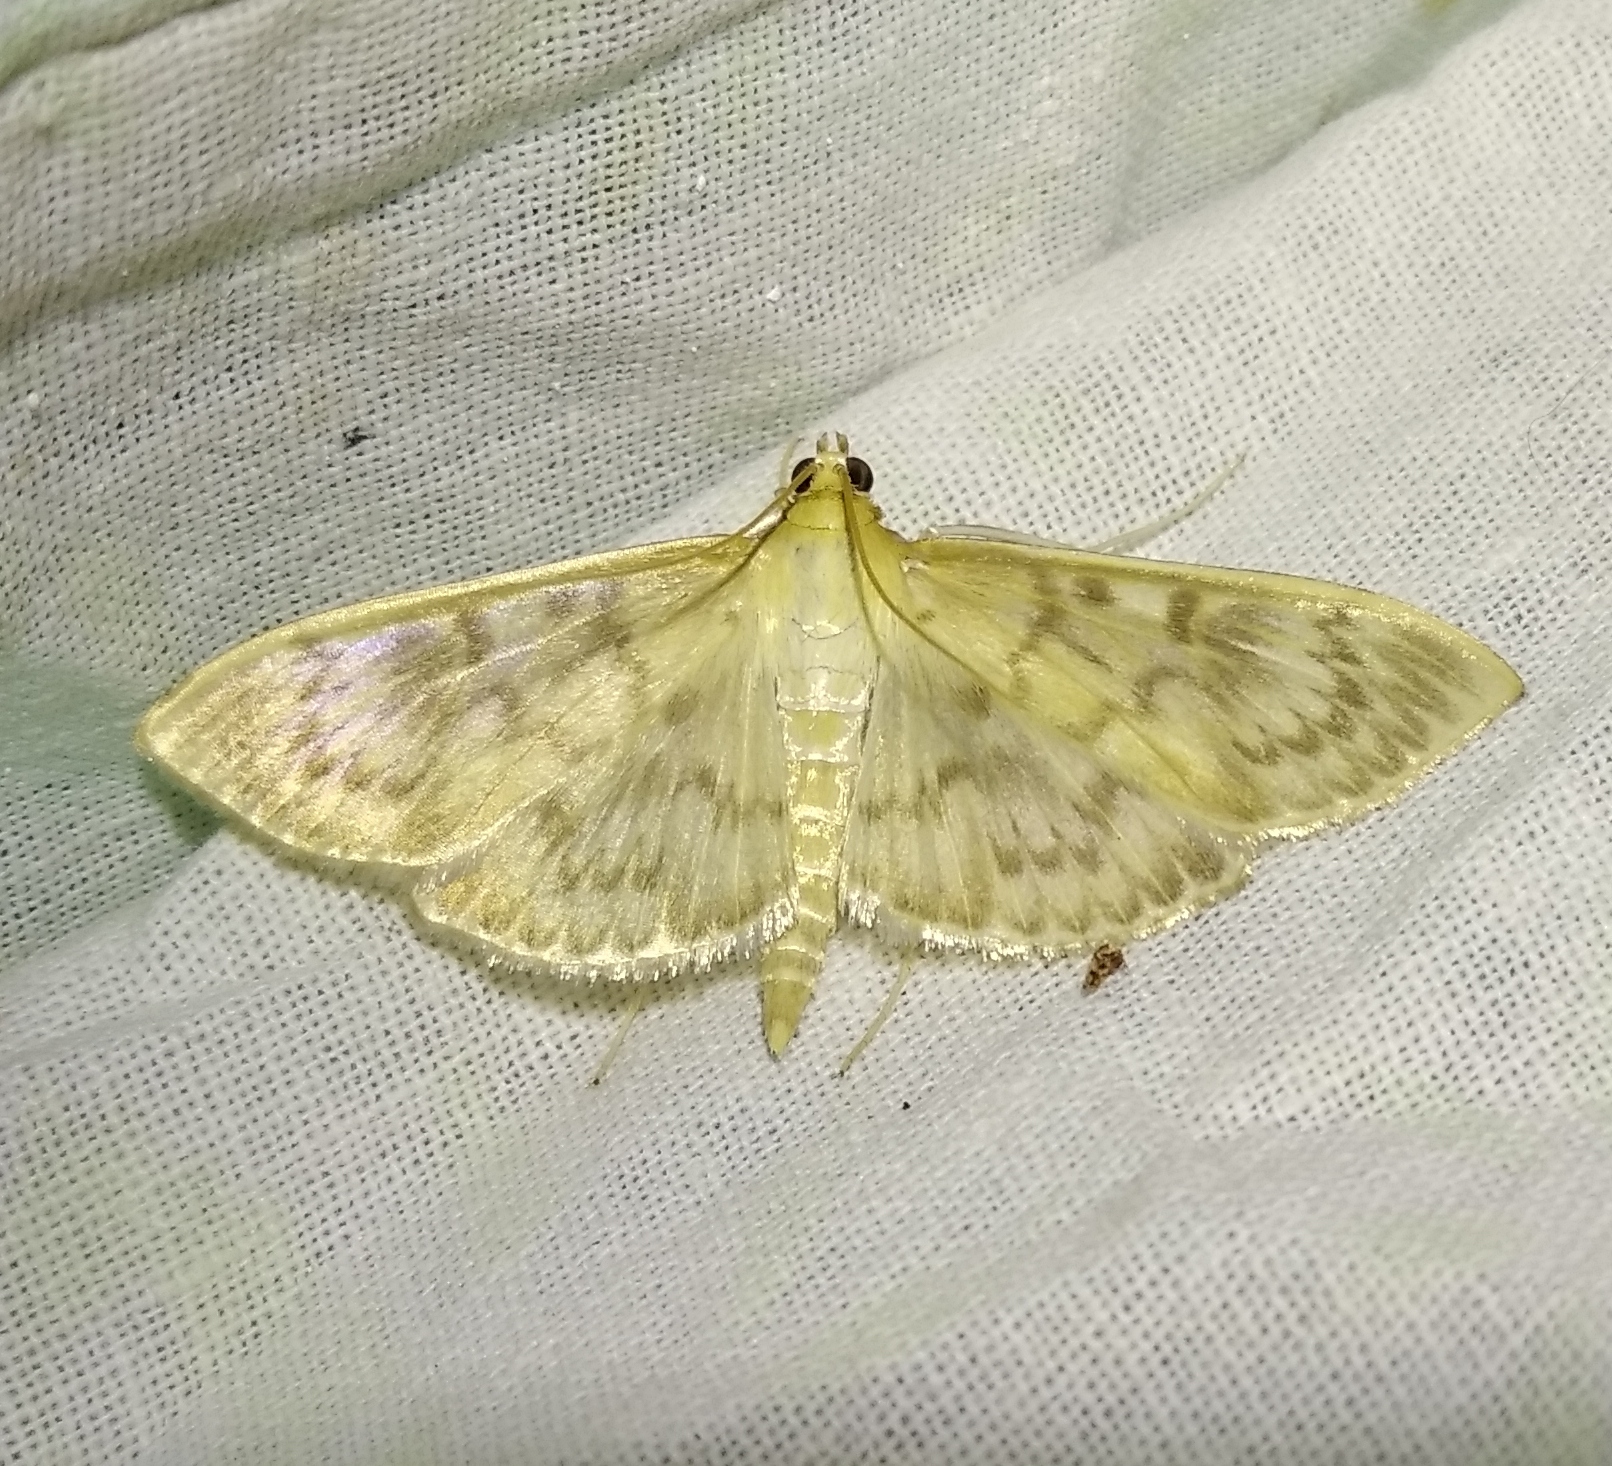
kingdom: Animalia
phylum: Arthropoda
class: Insecta
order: Lepidoptera
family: Crambidae
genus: Patania
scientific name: Patania ruralis
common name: Mother of pearl
